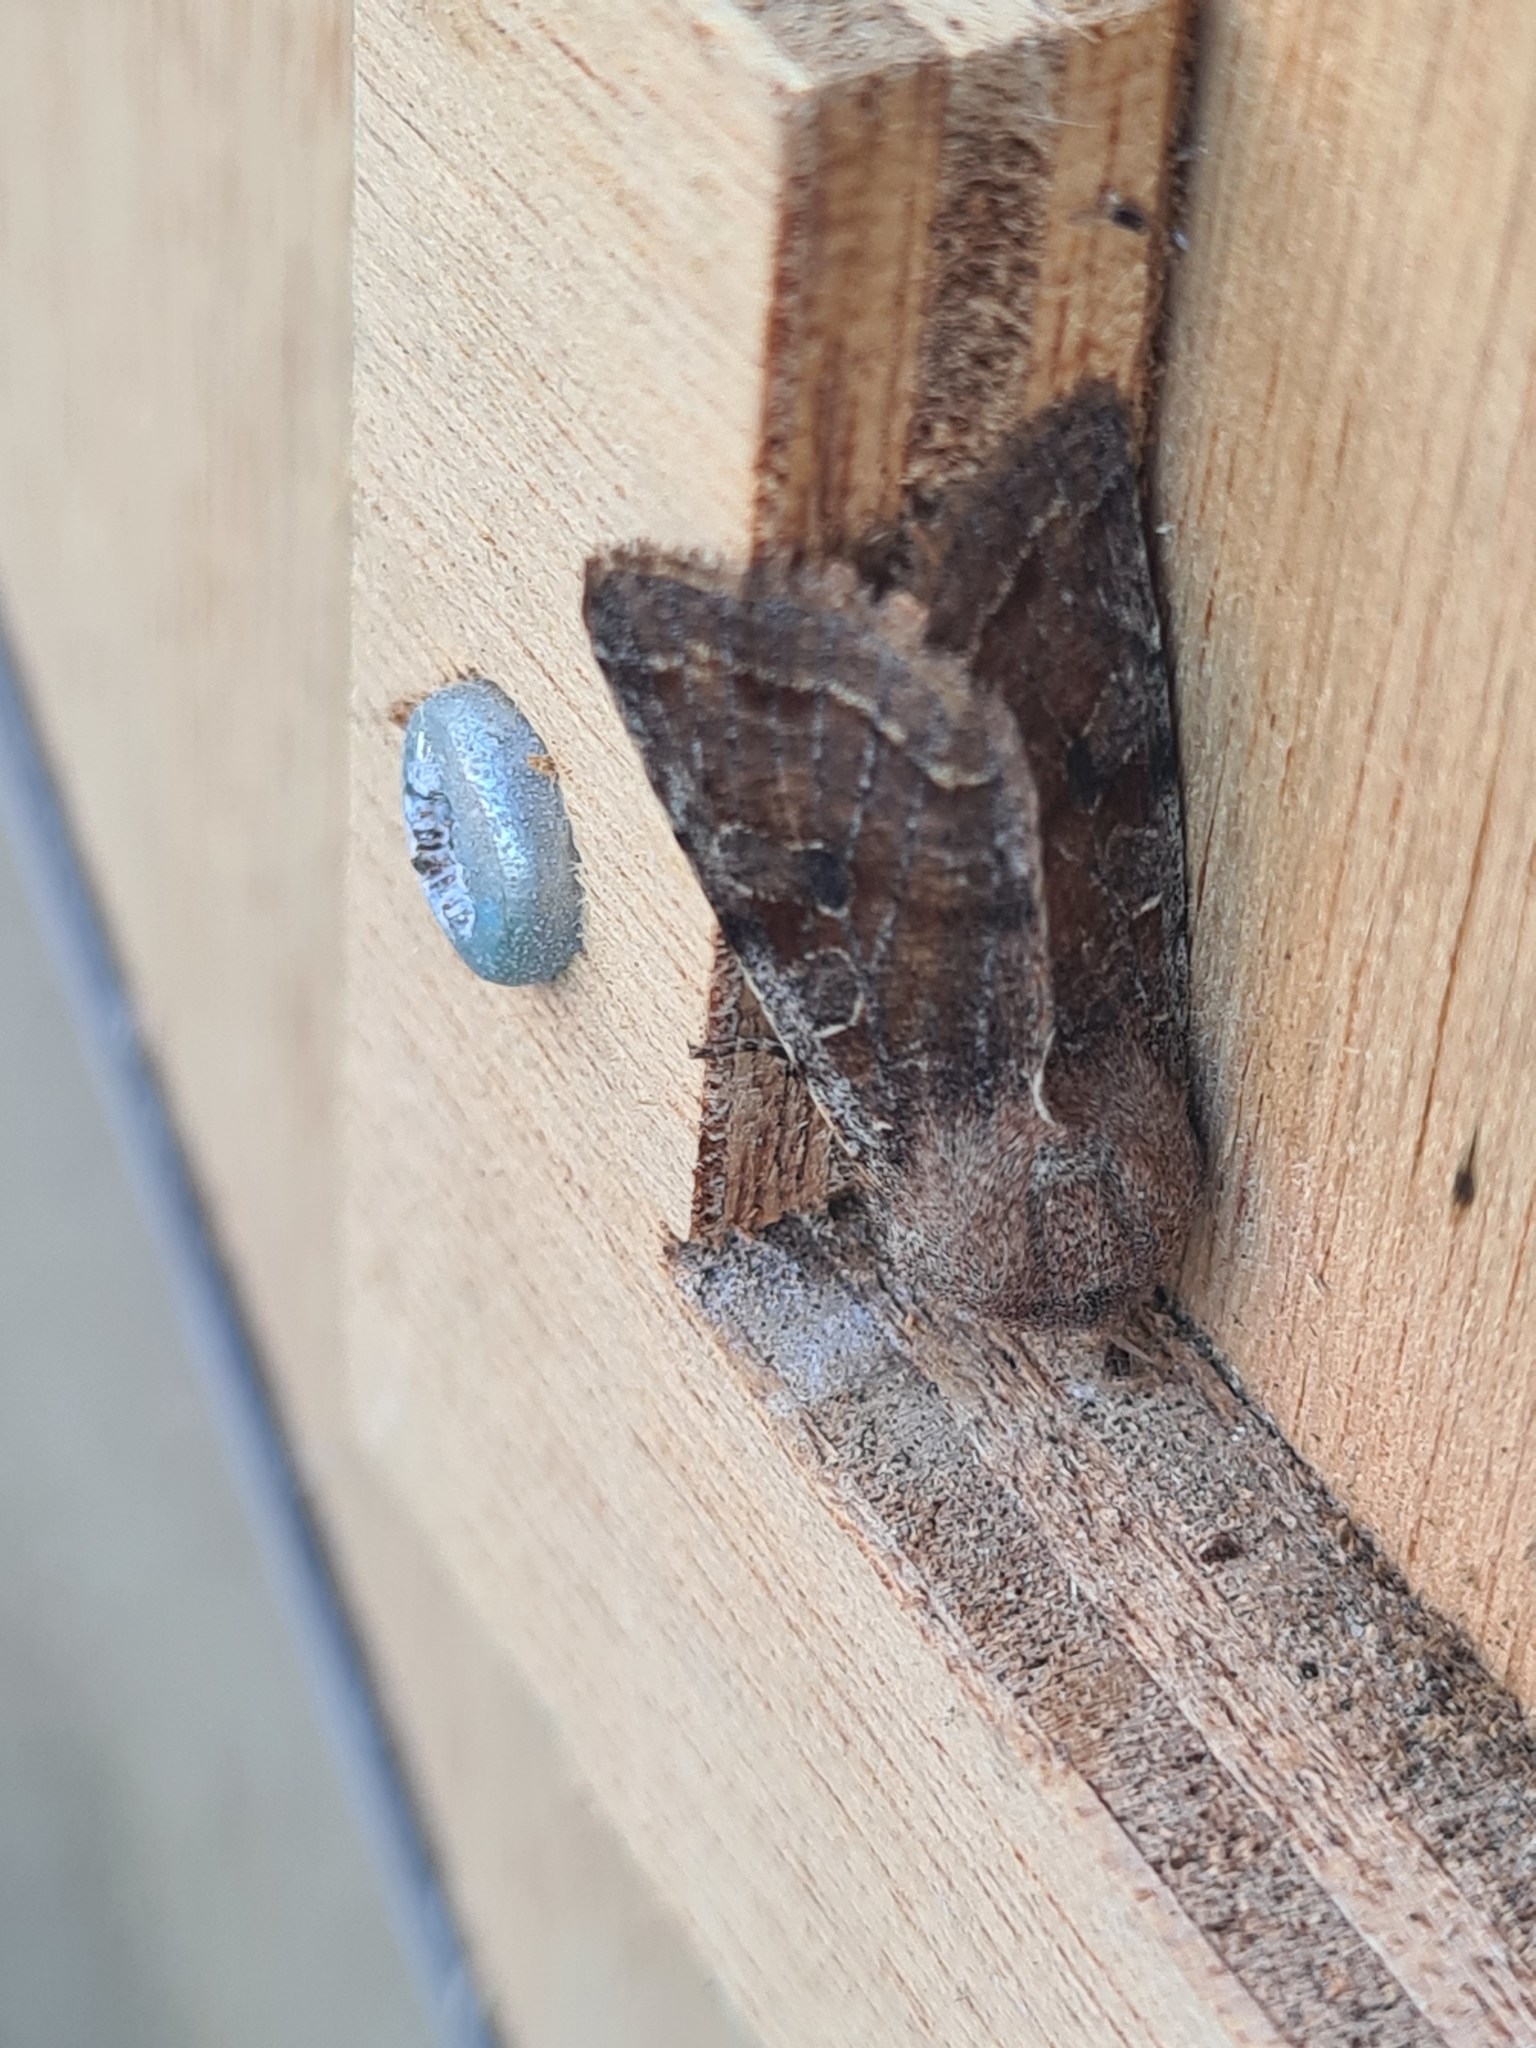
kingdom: Animalia
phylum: Arthropoda
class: Insecta
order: Lepidoptera
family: Noctuidae
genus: Orthosia
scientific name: Orthosia incerta
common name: Clouded drab
